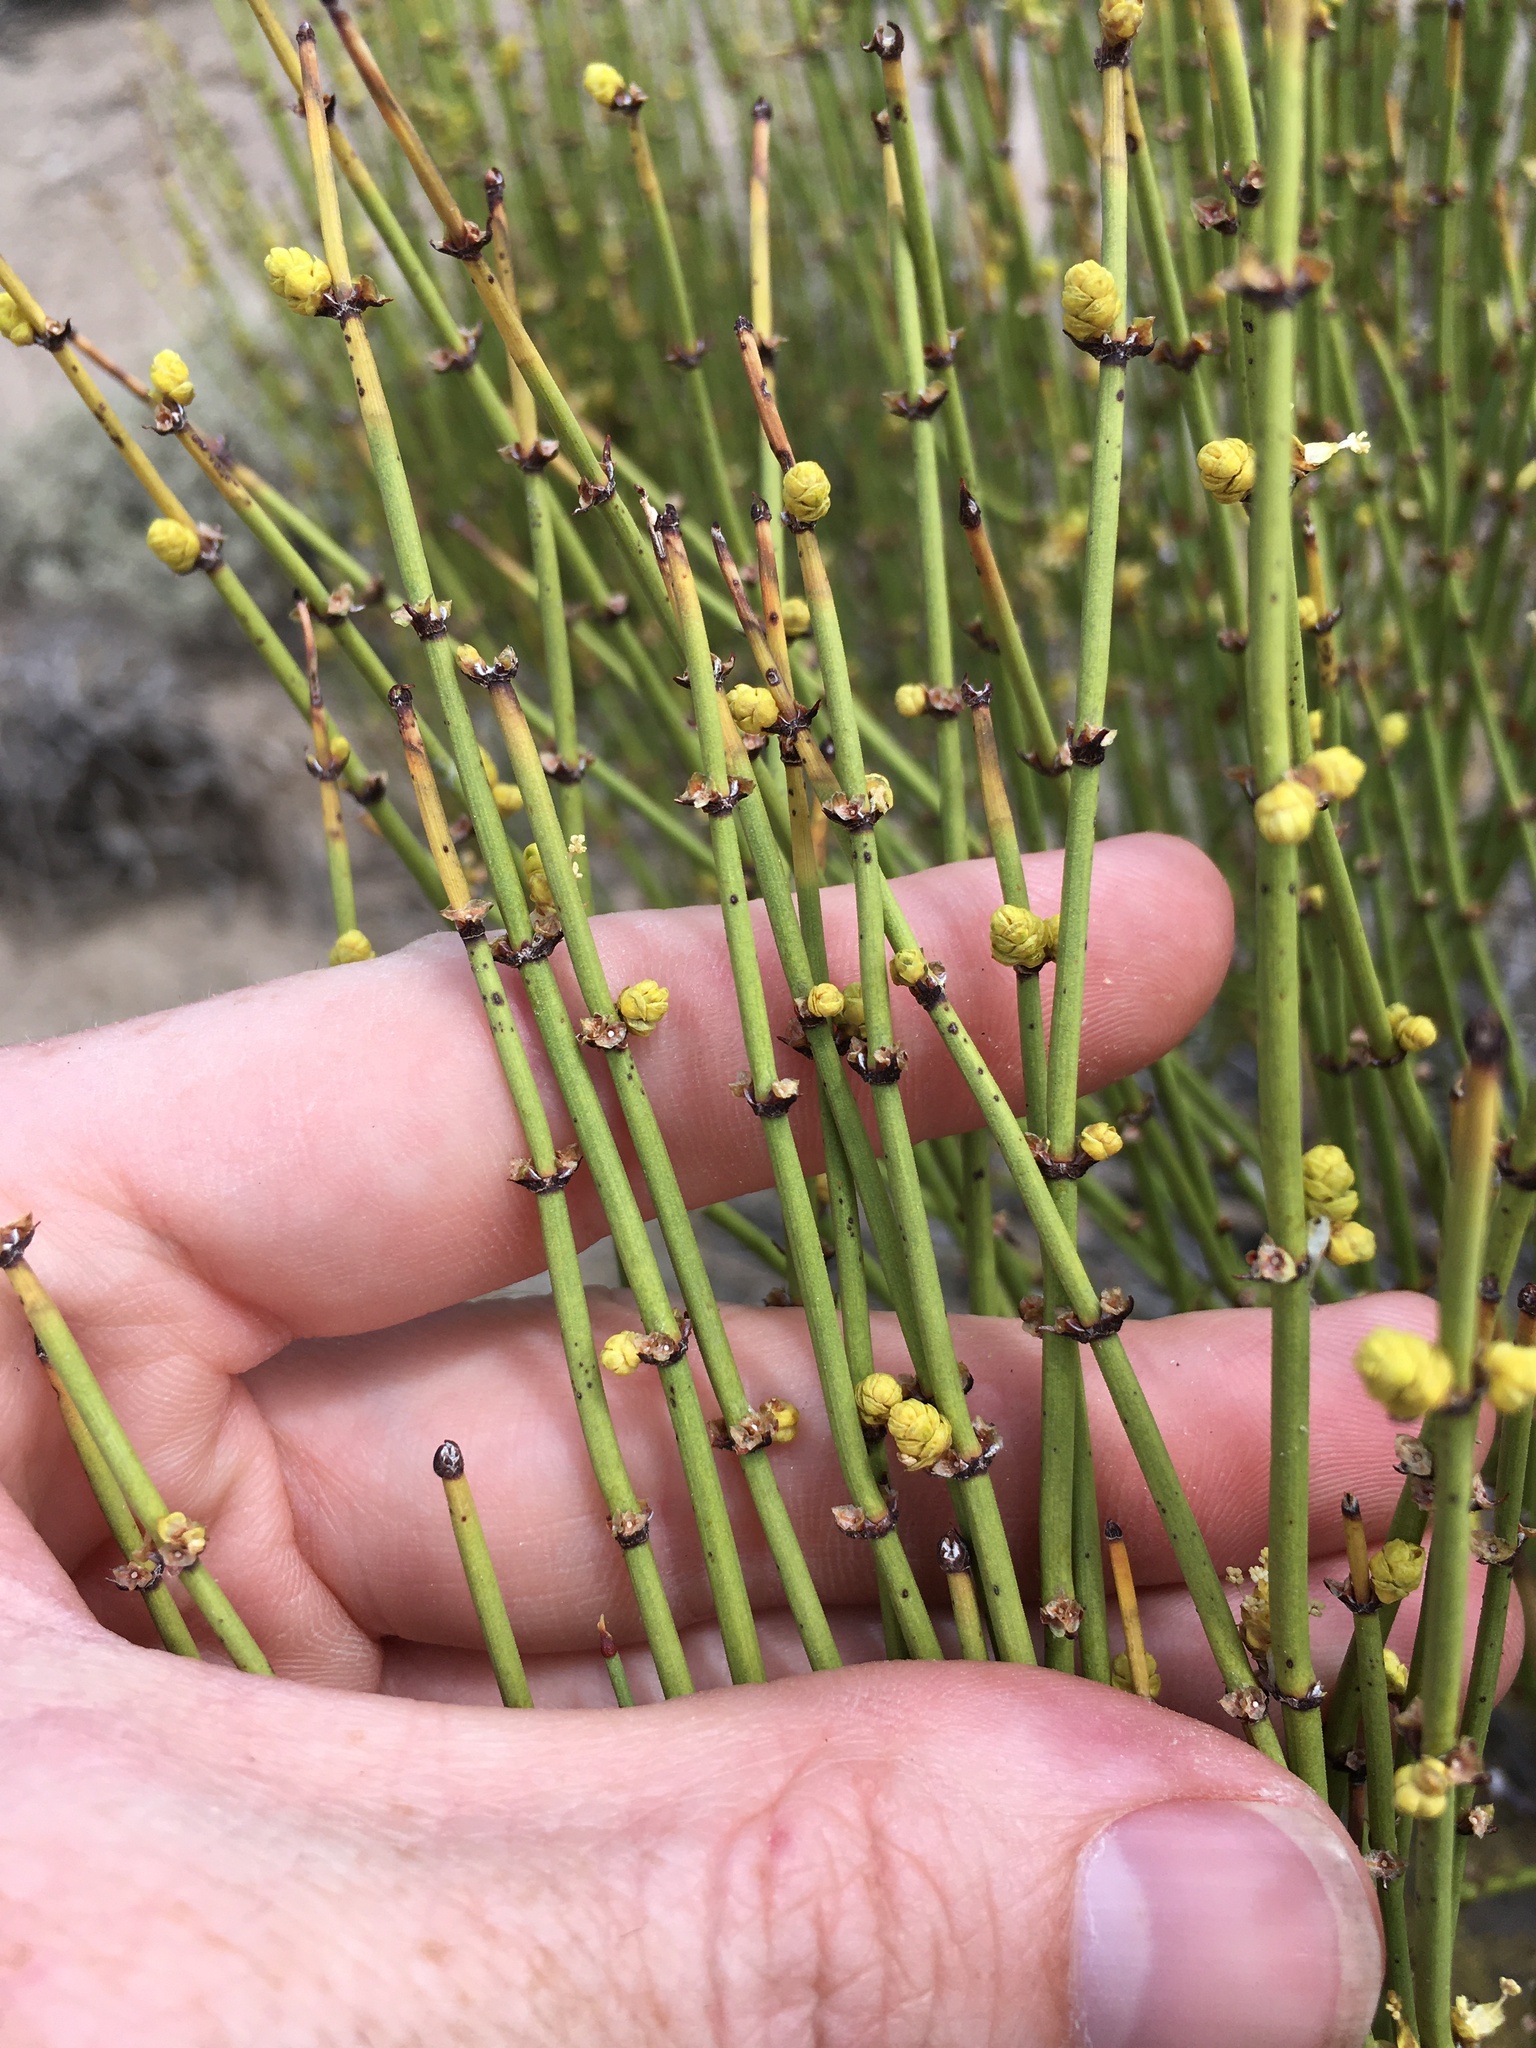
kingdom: Plantae
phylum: Tracheophyta
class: Gnetopsida
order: Ephedrales
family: Ephedraceae
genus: Ephedra
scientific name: Ephedra viridis
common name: Green ephedra
